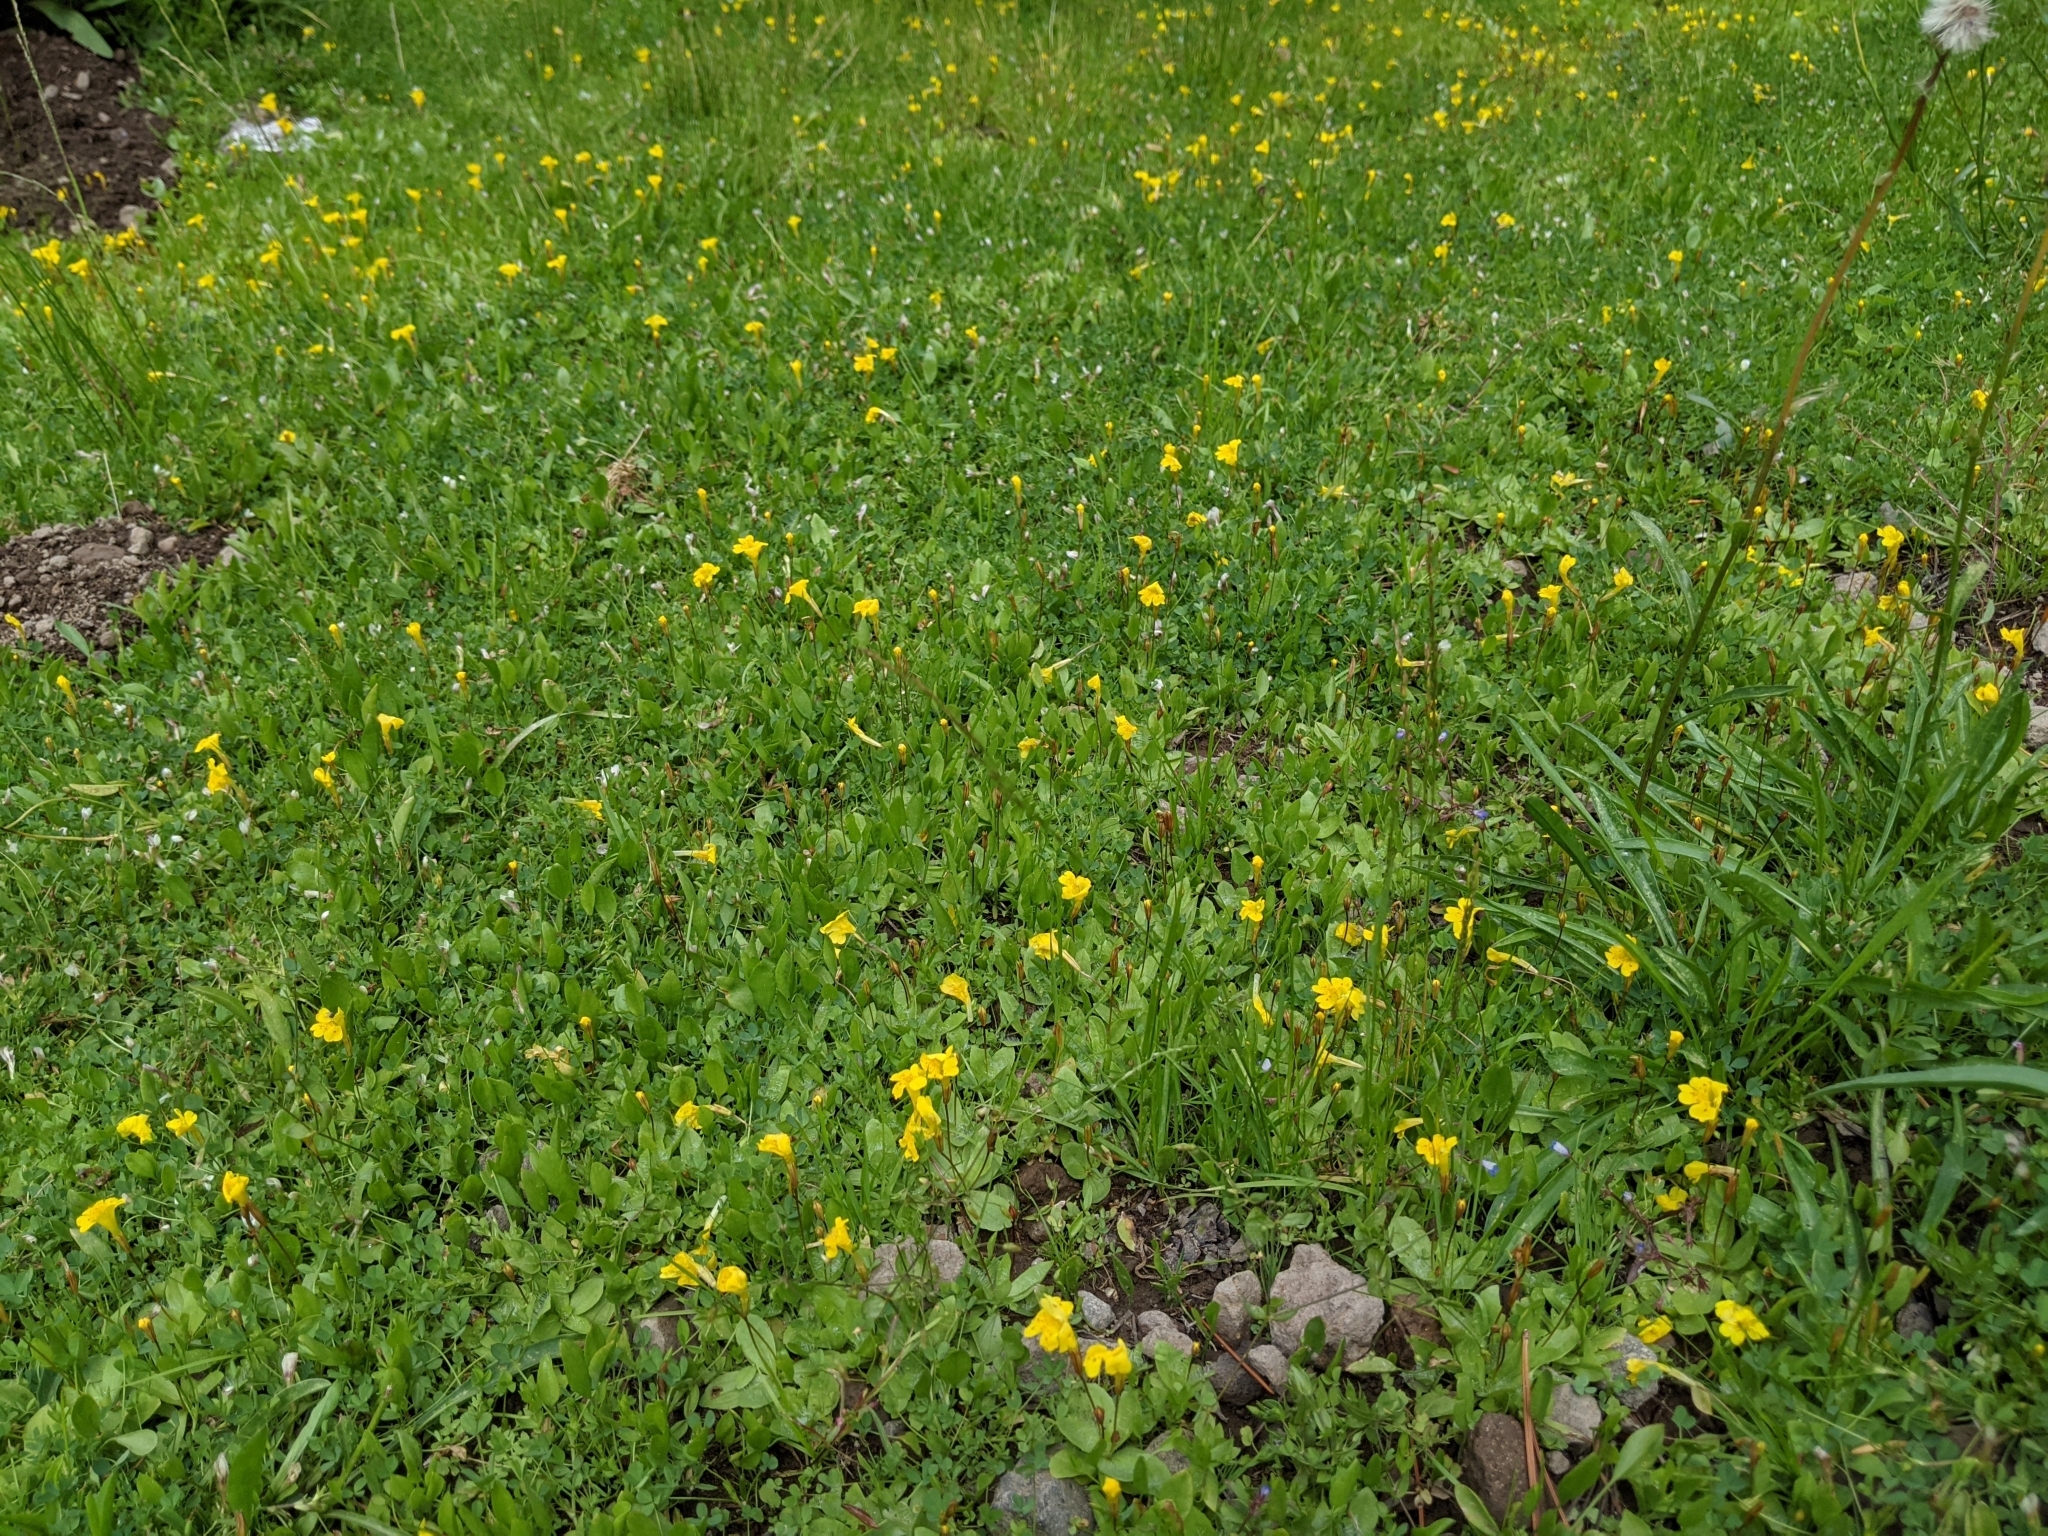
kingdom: Plantae
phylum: Tracheophyta
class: Magnoliopsida
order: Lamiales
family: Phrymaceae
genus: Erythranthe
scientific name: Erythranthe primuloides
